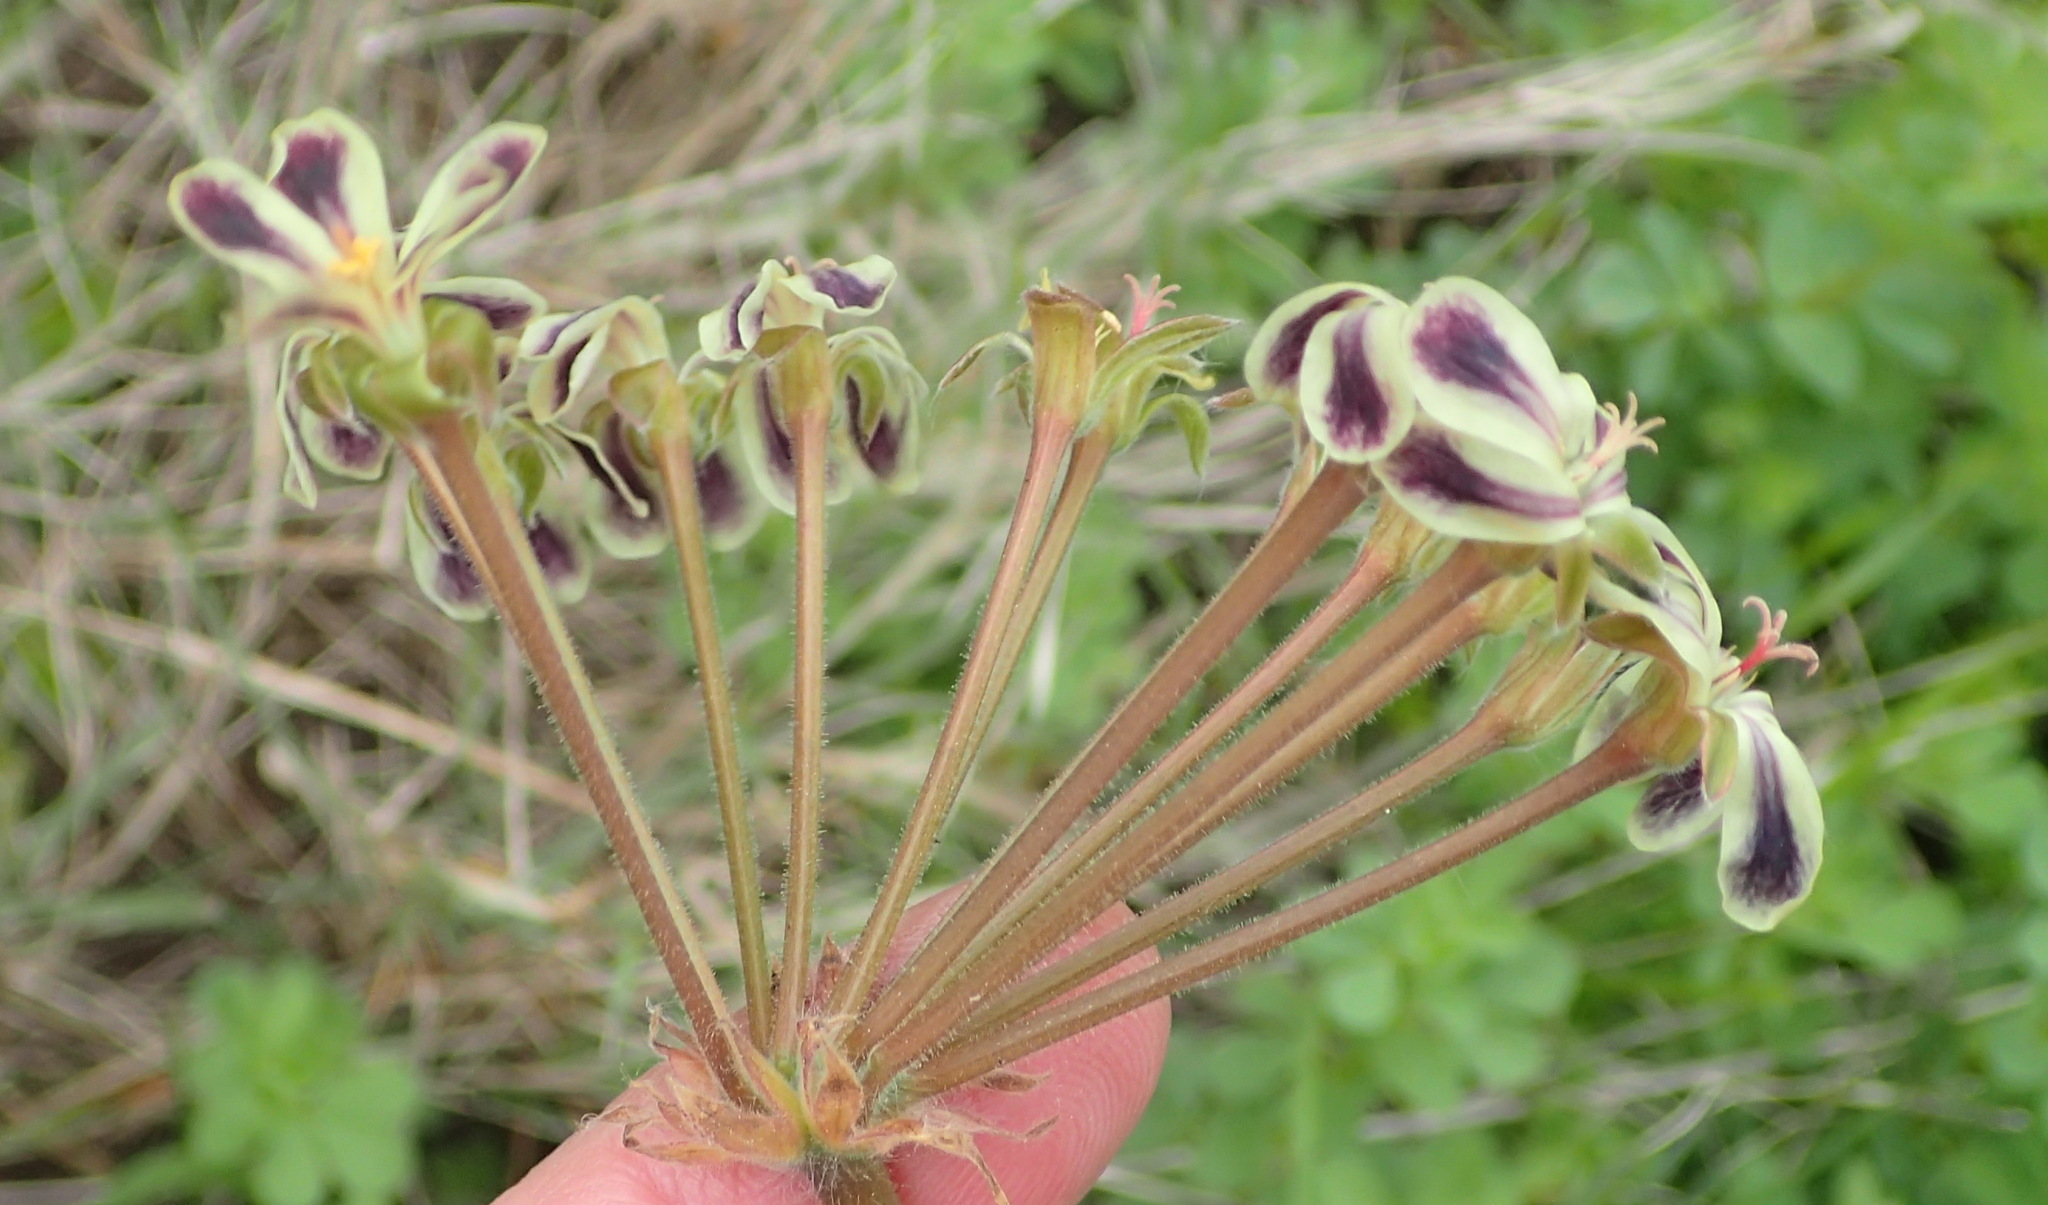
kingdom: Plantae
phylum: Tracheophyta
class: Magnoliopsida
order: Geraniales
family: Geraniaceae
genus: Pelargonium
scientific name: Pelargonium lobatum
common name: Vine-leaf pelargonium
